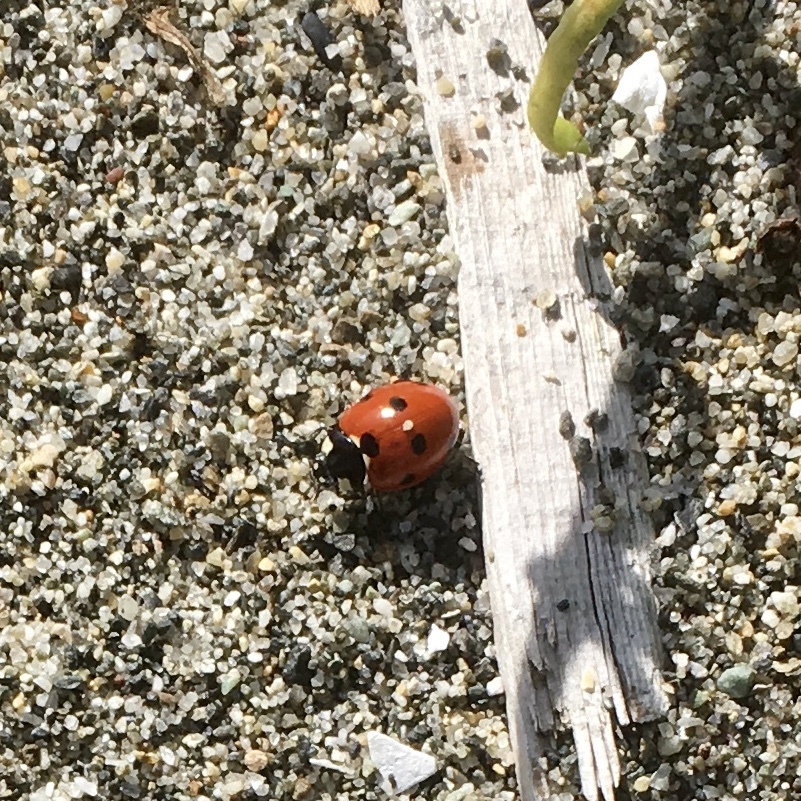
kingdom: Animalia
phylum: Arthropoda
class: Insecta
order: Coleoptera
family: Coccinellidae
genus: Coccinella
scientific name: Coccinella septempunctata
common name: Sevenspotted lady beetle
